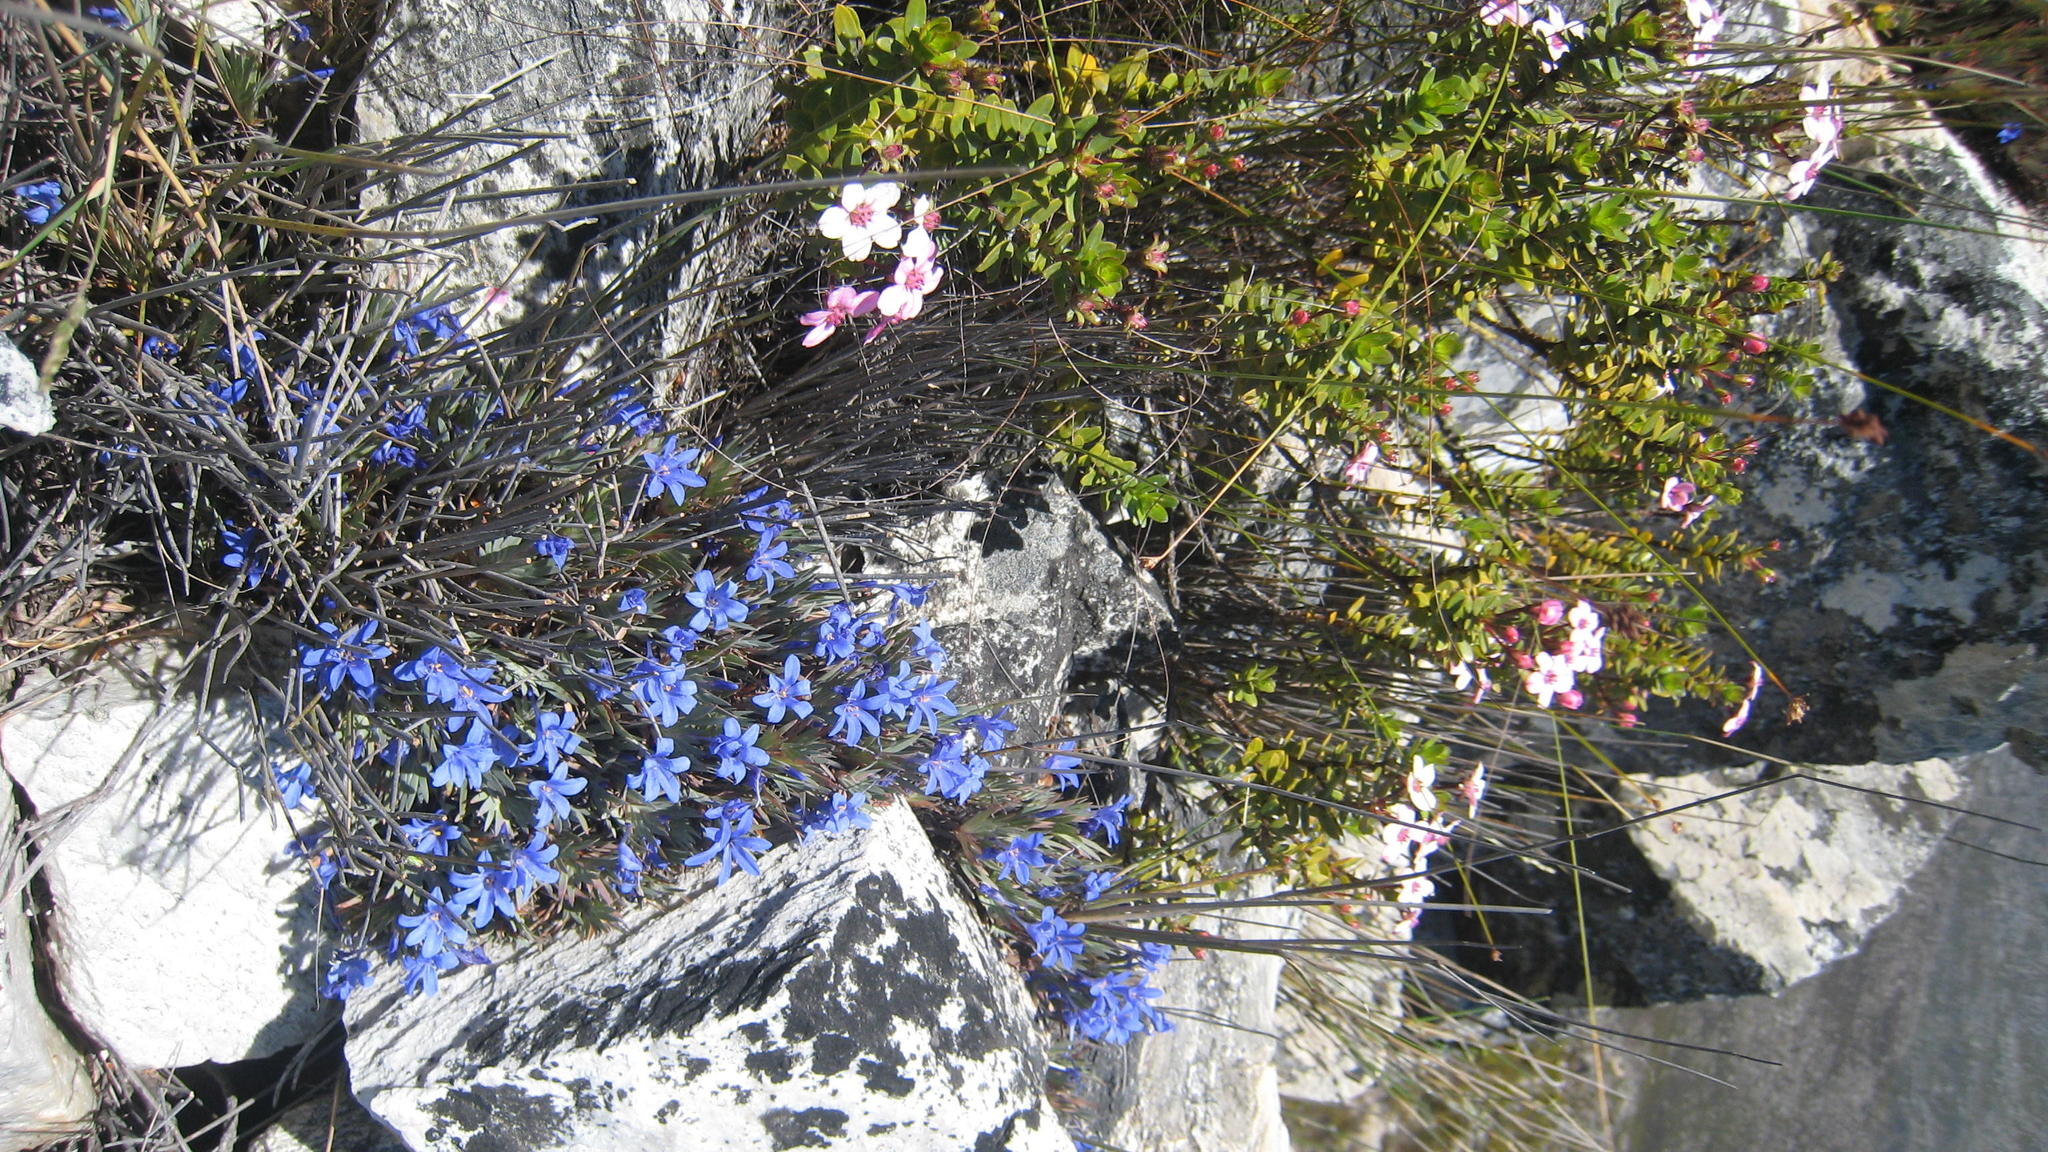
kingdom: Plantae
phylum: Tracheophyta
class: Liliopsida
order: Asparagales
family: Iridaceae
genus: Nivenia
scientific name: Nivenia fruticosa
